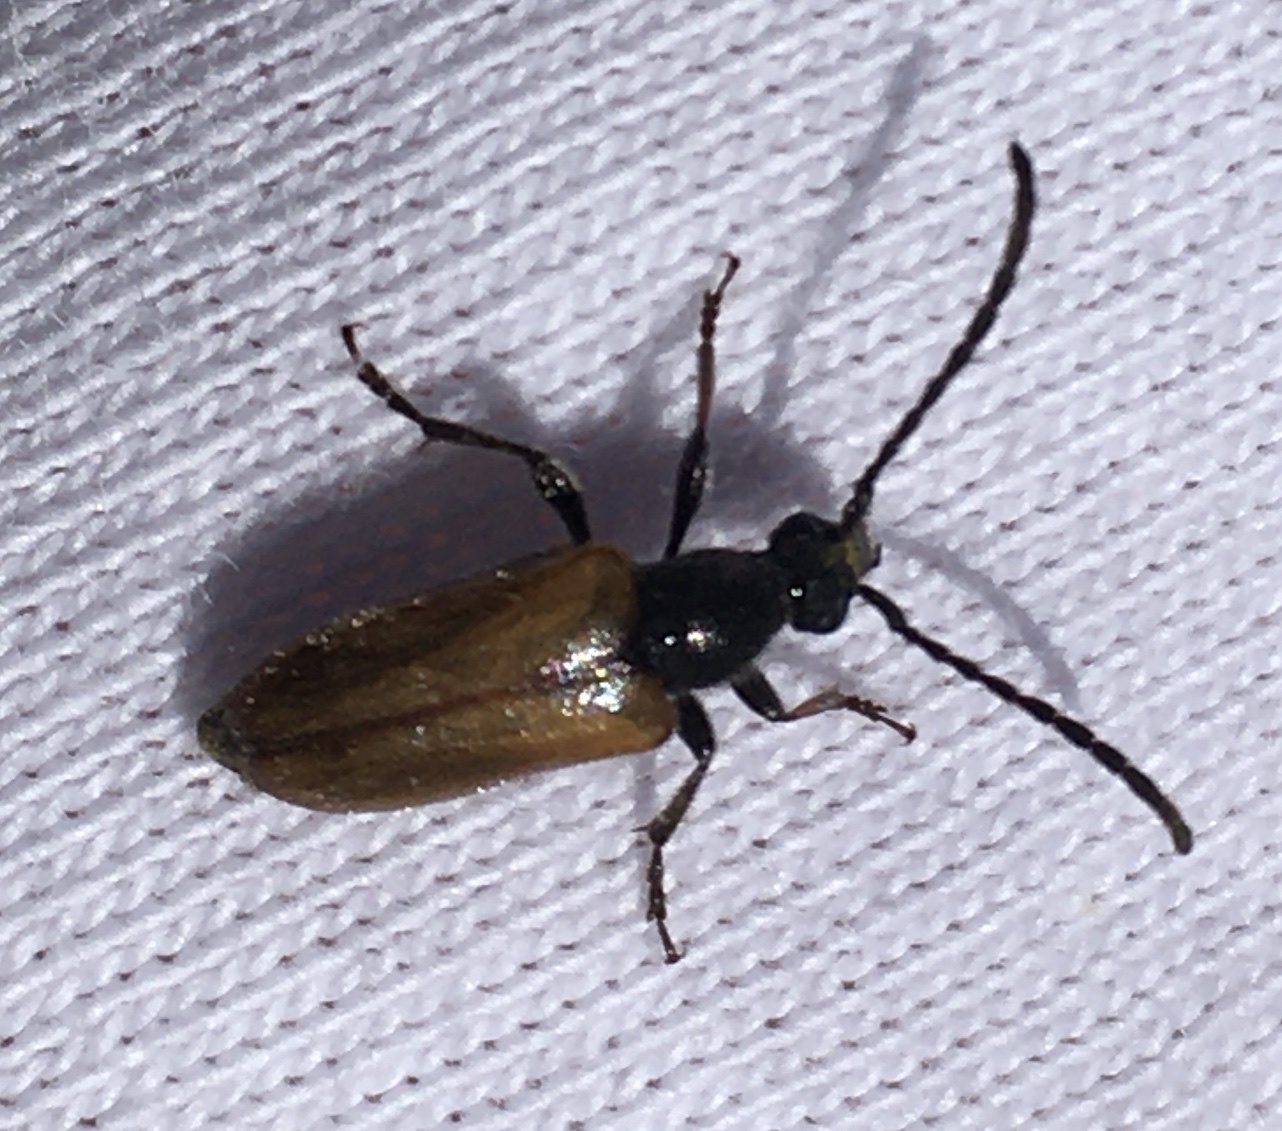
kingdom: Animalia
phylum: Arthropoda
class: Insecta
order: Coleoptera
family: Cerambycidae
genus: Pseudovadonia
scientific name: Pseudovadonia livida
